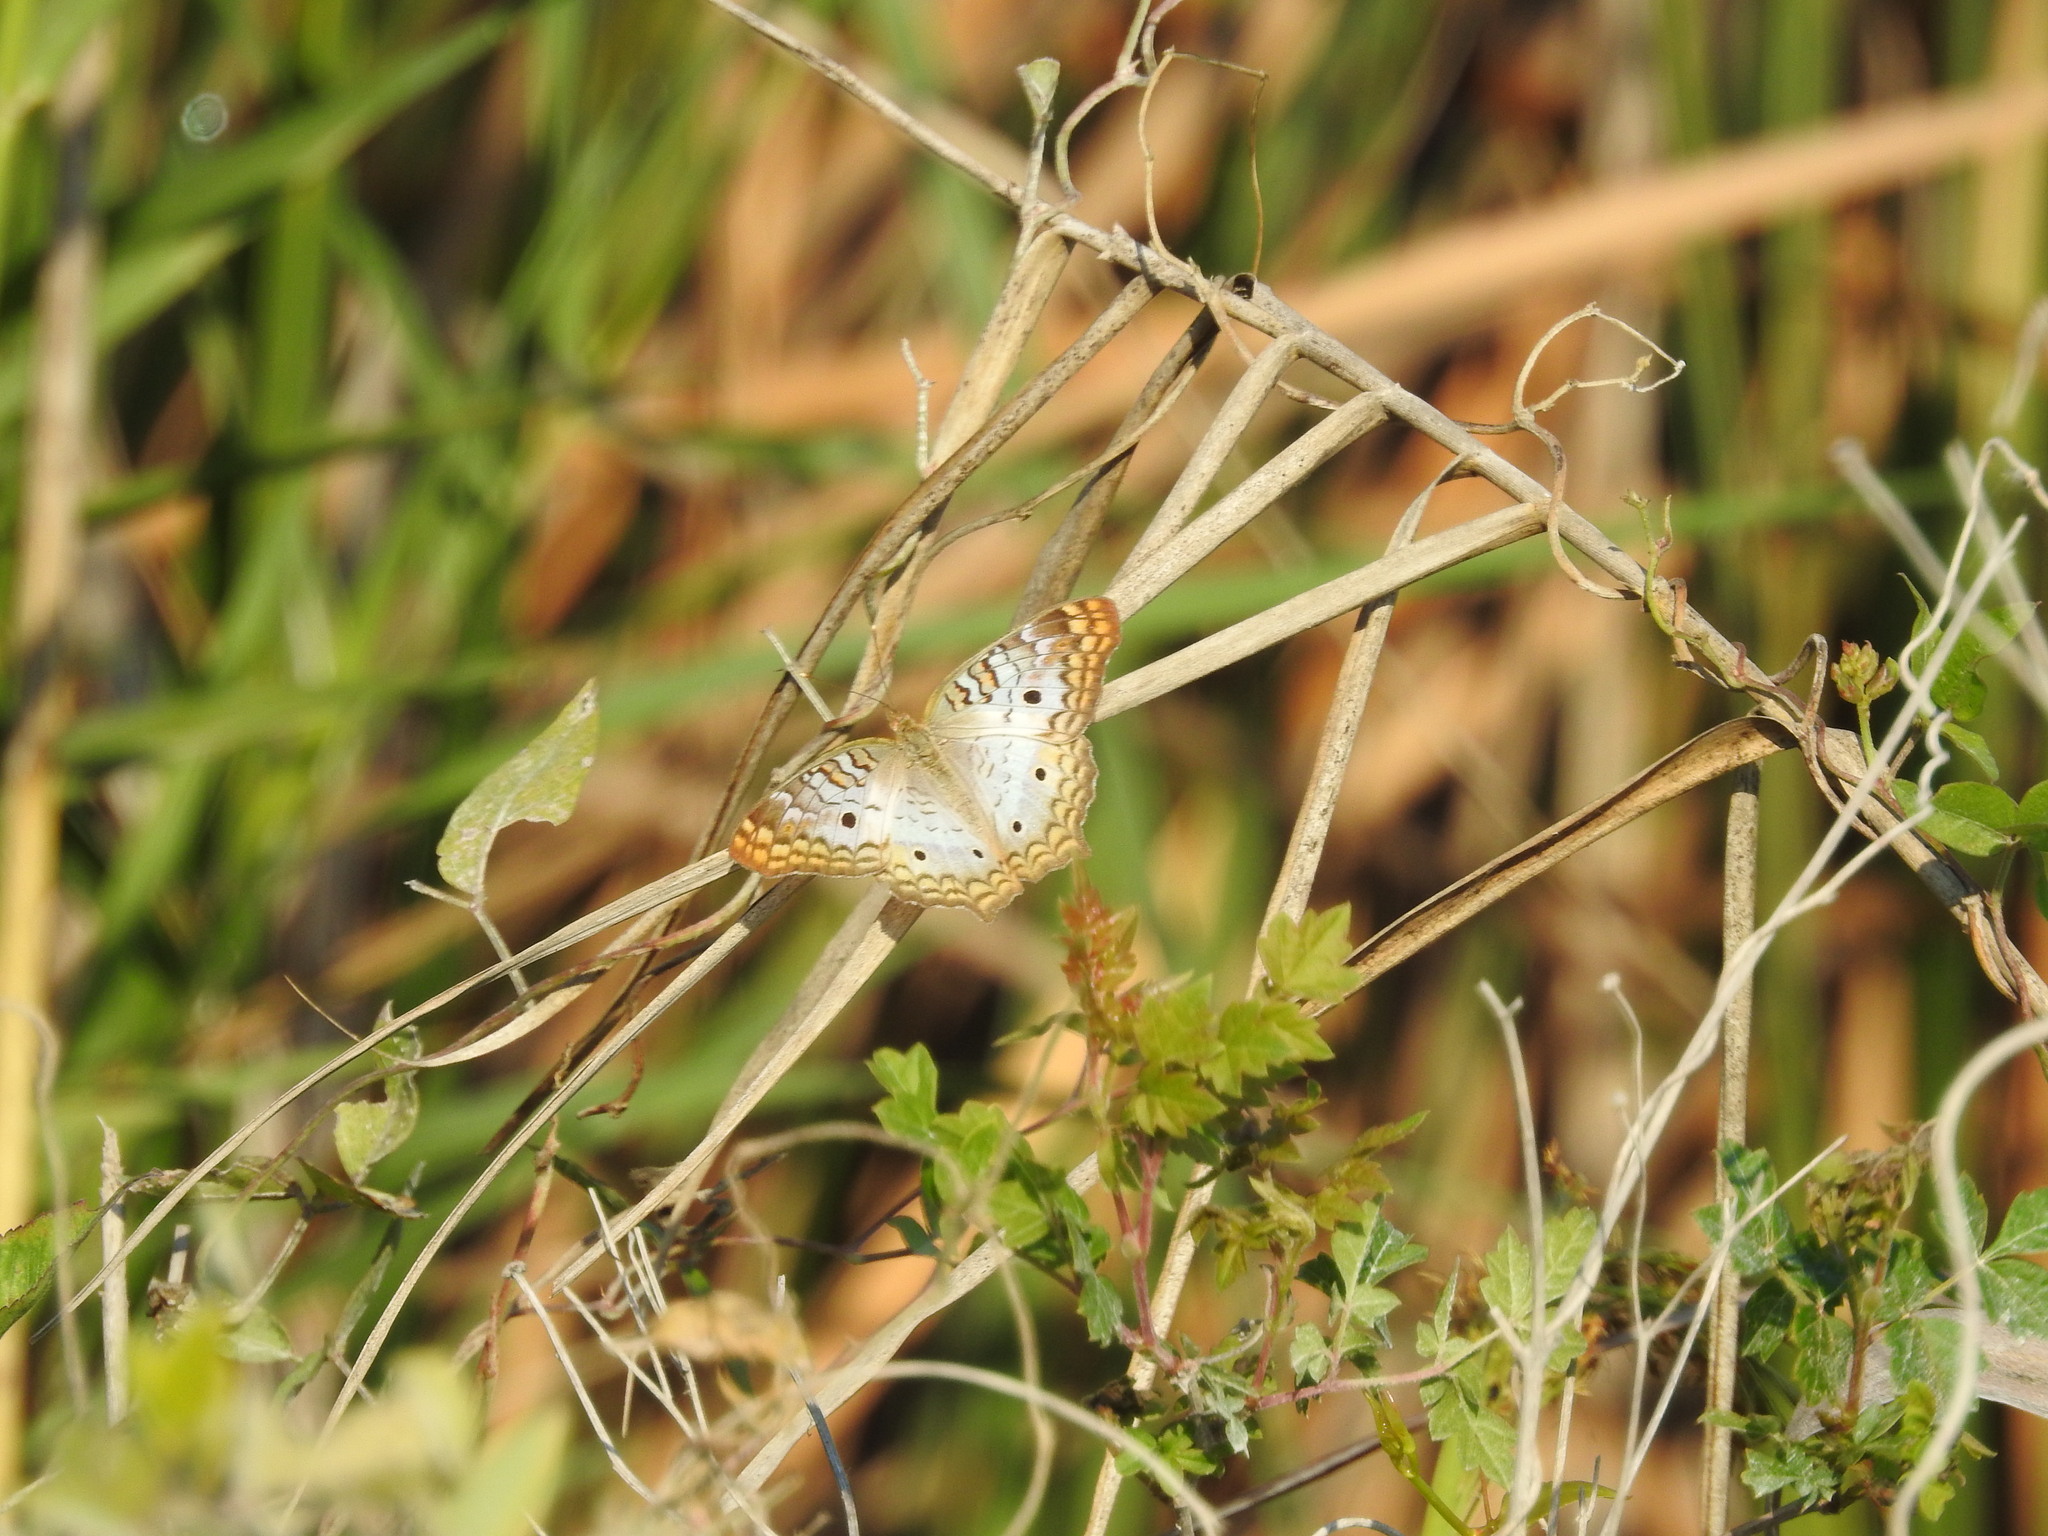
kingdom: Animalia
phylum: Arthropoda
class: Insecta
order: Lepidoptera
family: Nymphalidae
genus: Anartia
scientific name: Anartia jatrophae
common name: White peacock
